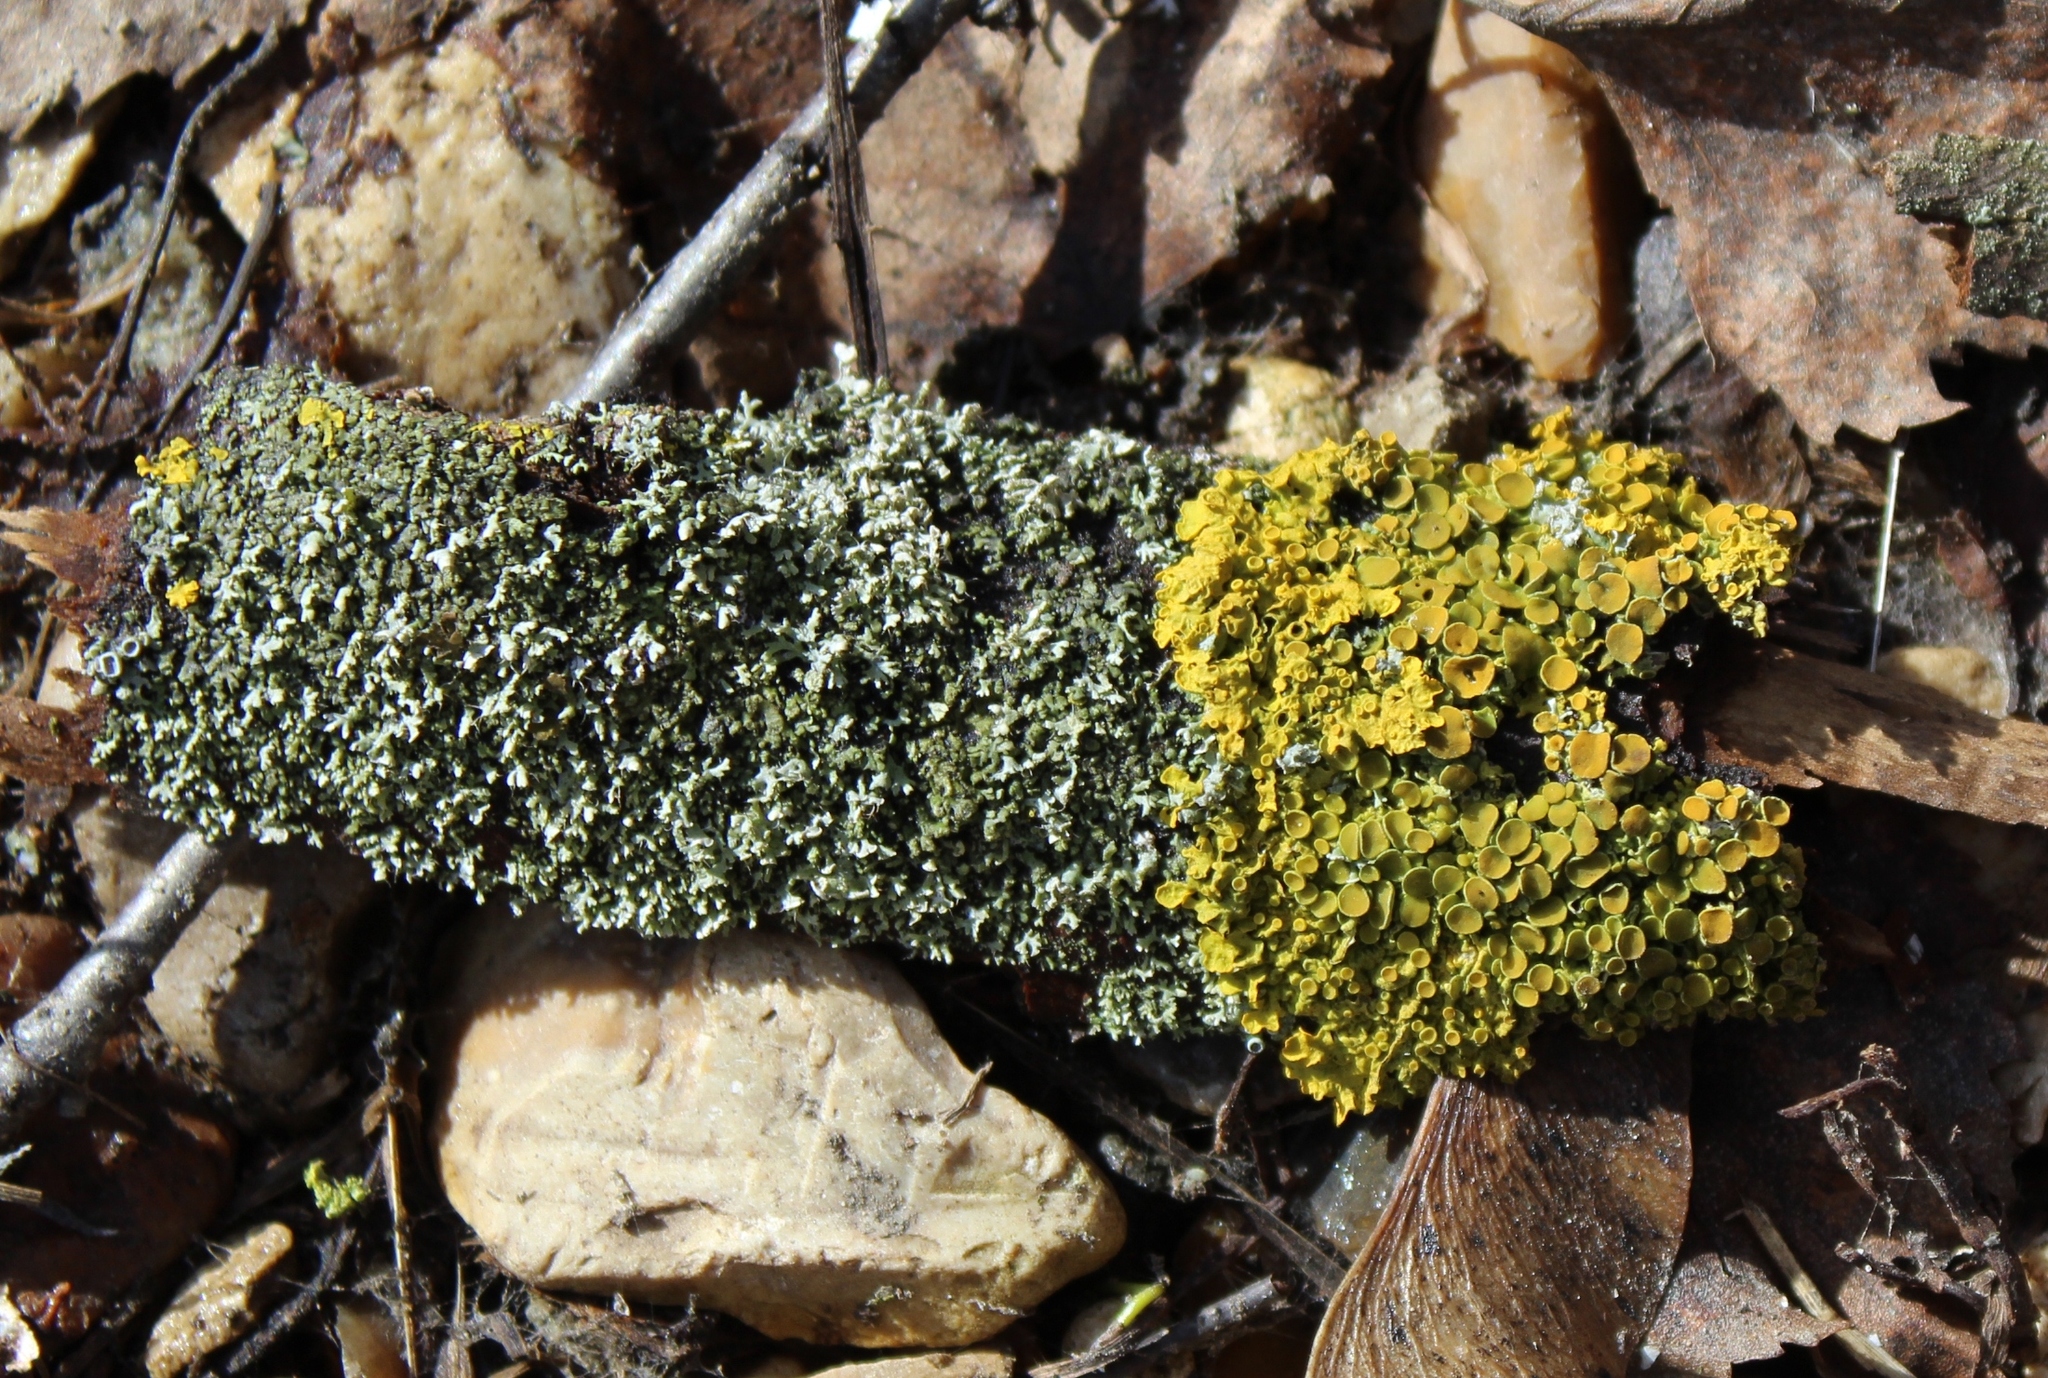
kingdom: Fungi
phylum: Ascomycota
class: Lecanoromycetes
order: Teloschistales
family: Teloschistaceae
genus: Xanthoria
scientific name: Xanthoria parietina
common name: Common orange lichen
